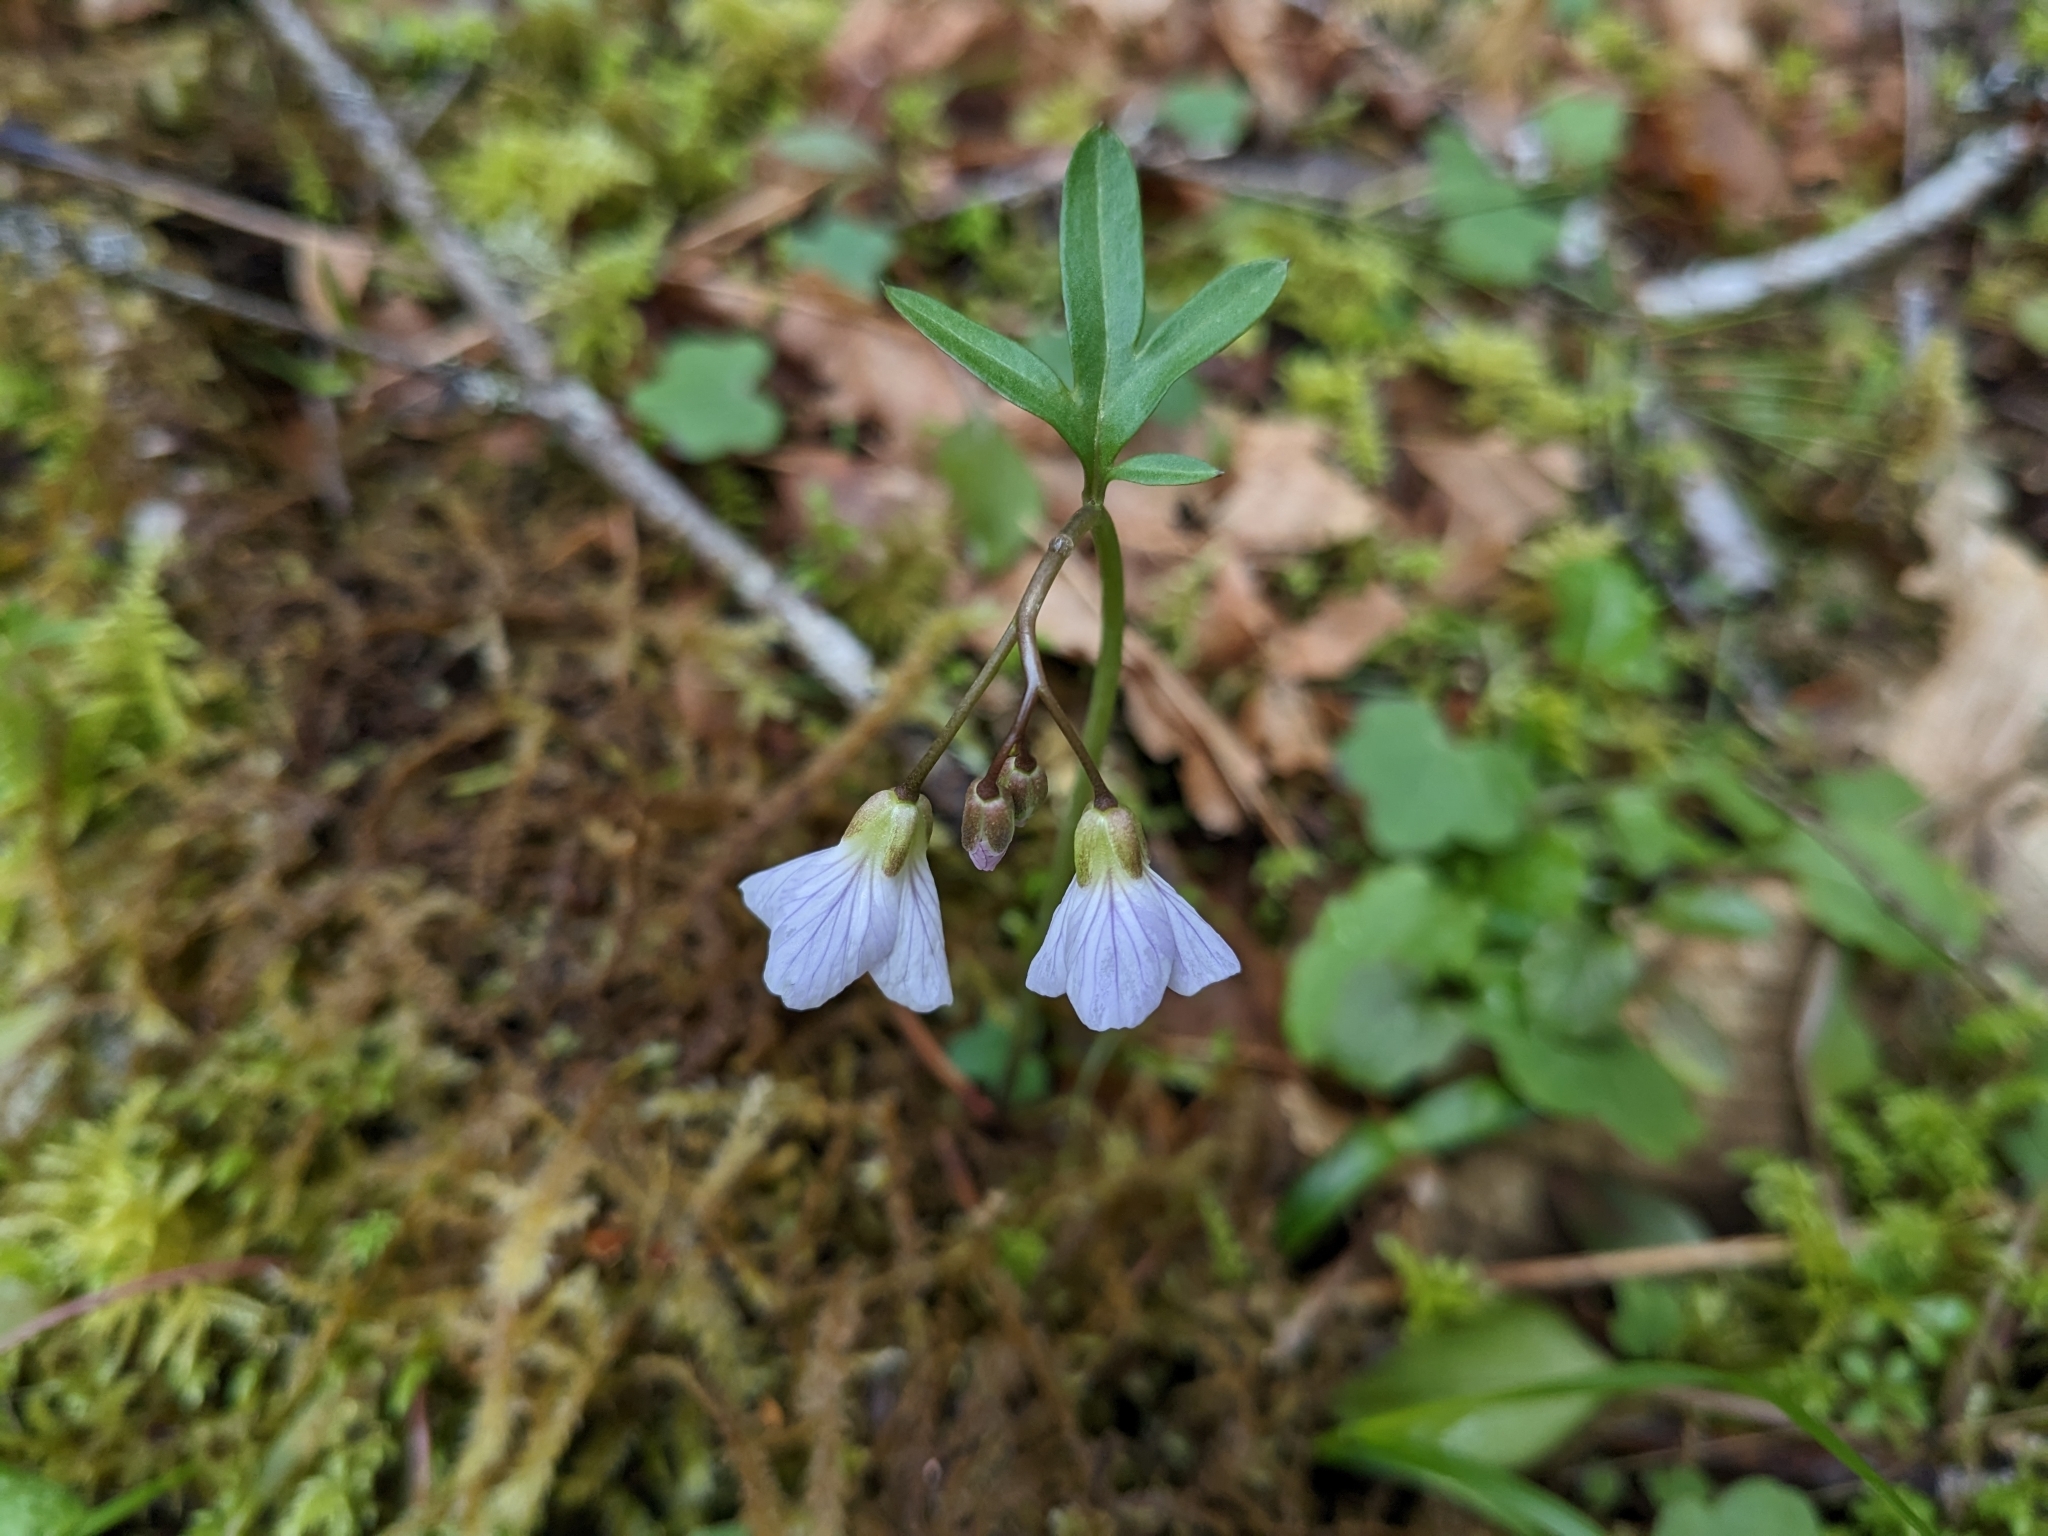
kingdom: Plantae
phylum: Tracheophyta
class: Magnoliopsida
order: Brassicales
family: Brassicaceae
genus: Cardamine
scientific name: Cardamine nuttallii
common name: Nuttall's toothwort
